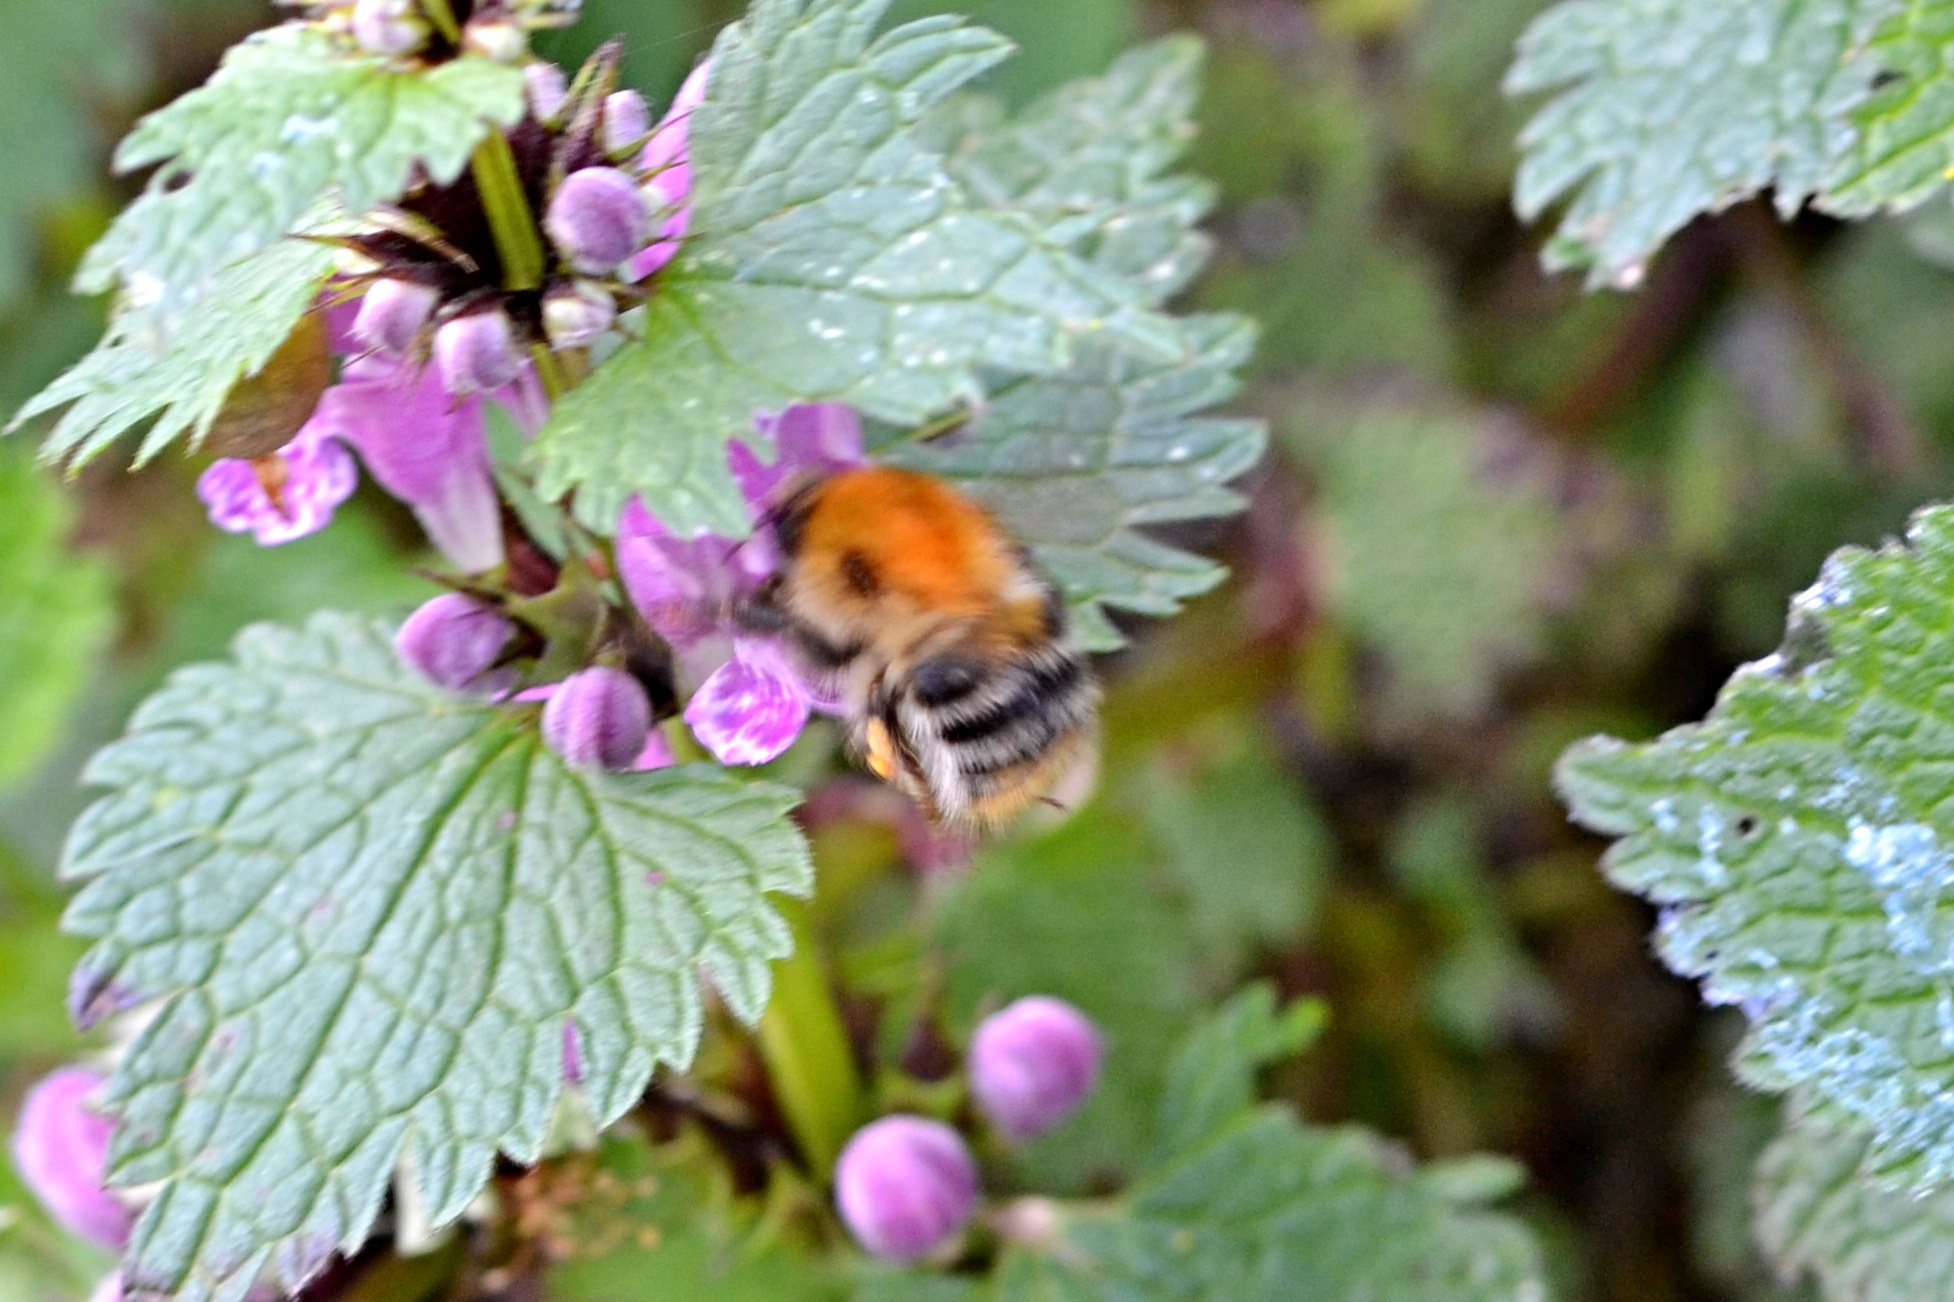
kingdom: Animalia
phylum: Arthropoda
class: Insecta
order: Hymenoptera
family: Apidae
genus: Bombus
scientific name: Bombus pascuorum
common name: Common carder bee
